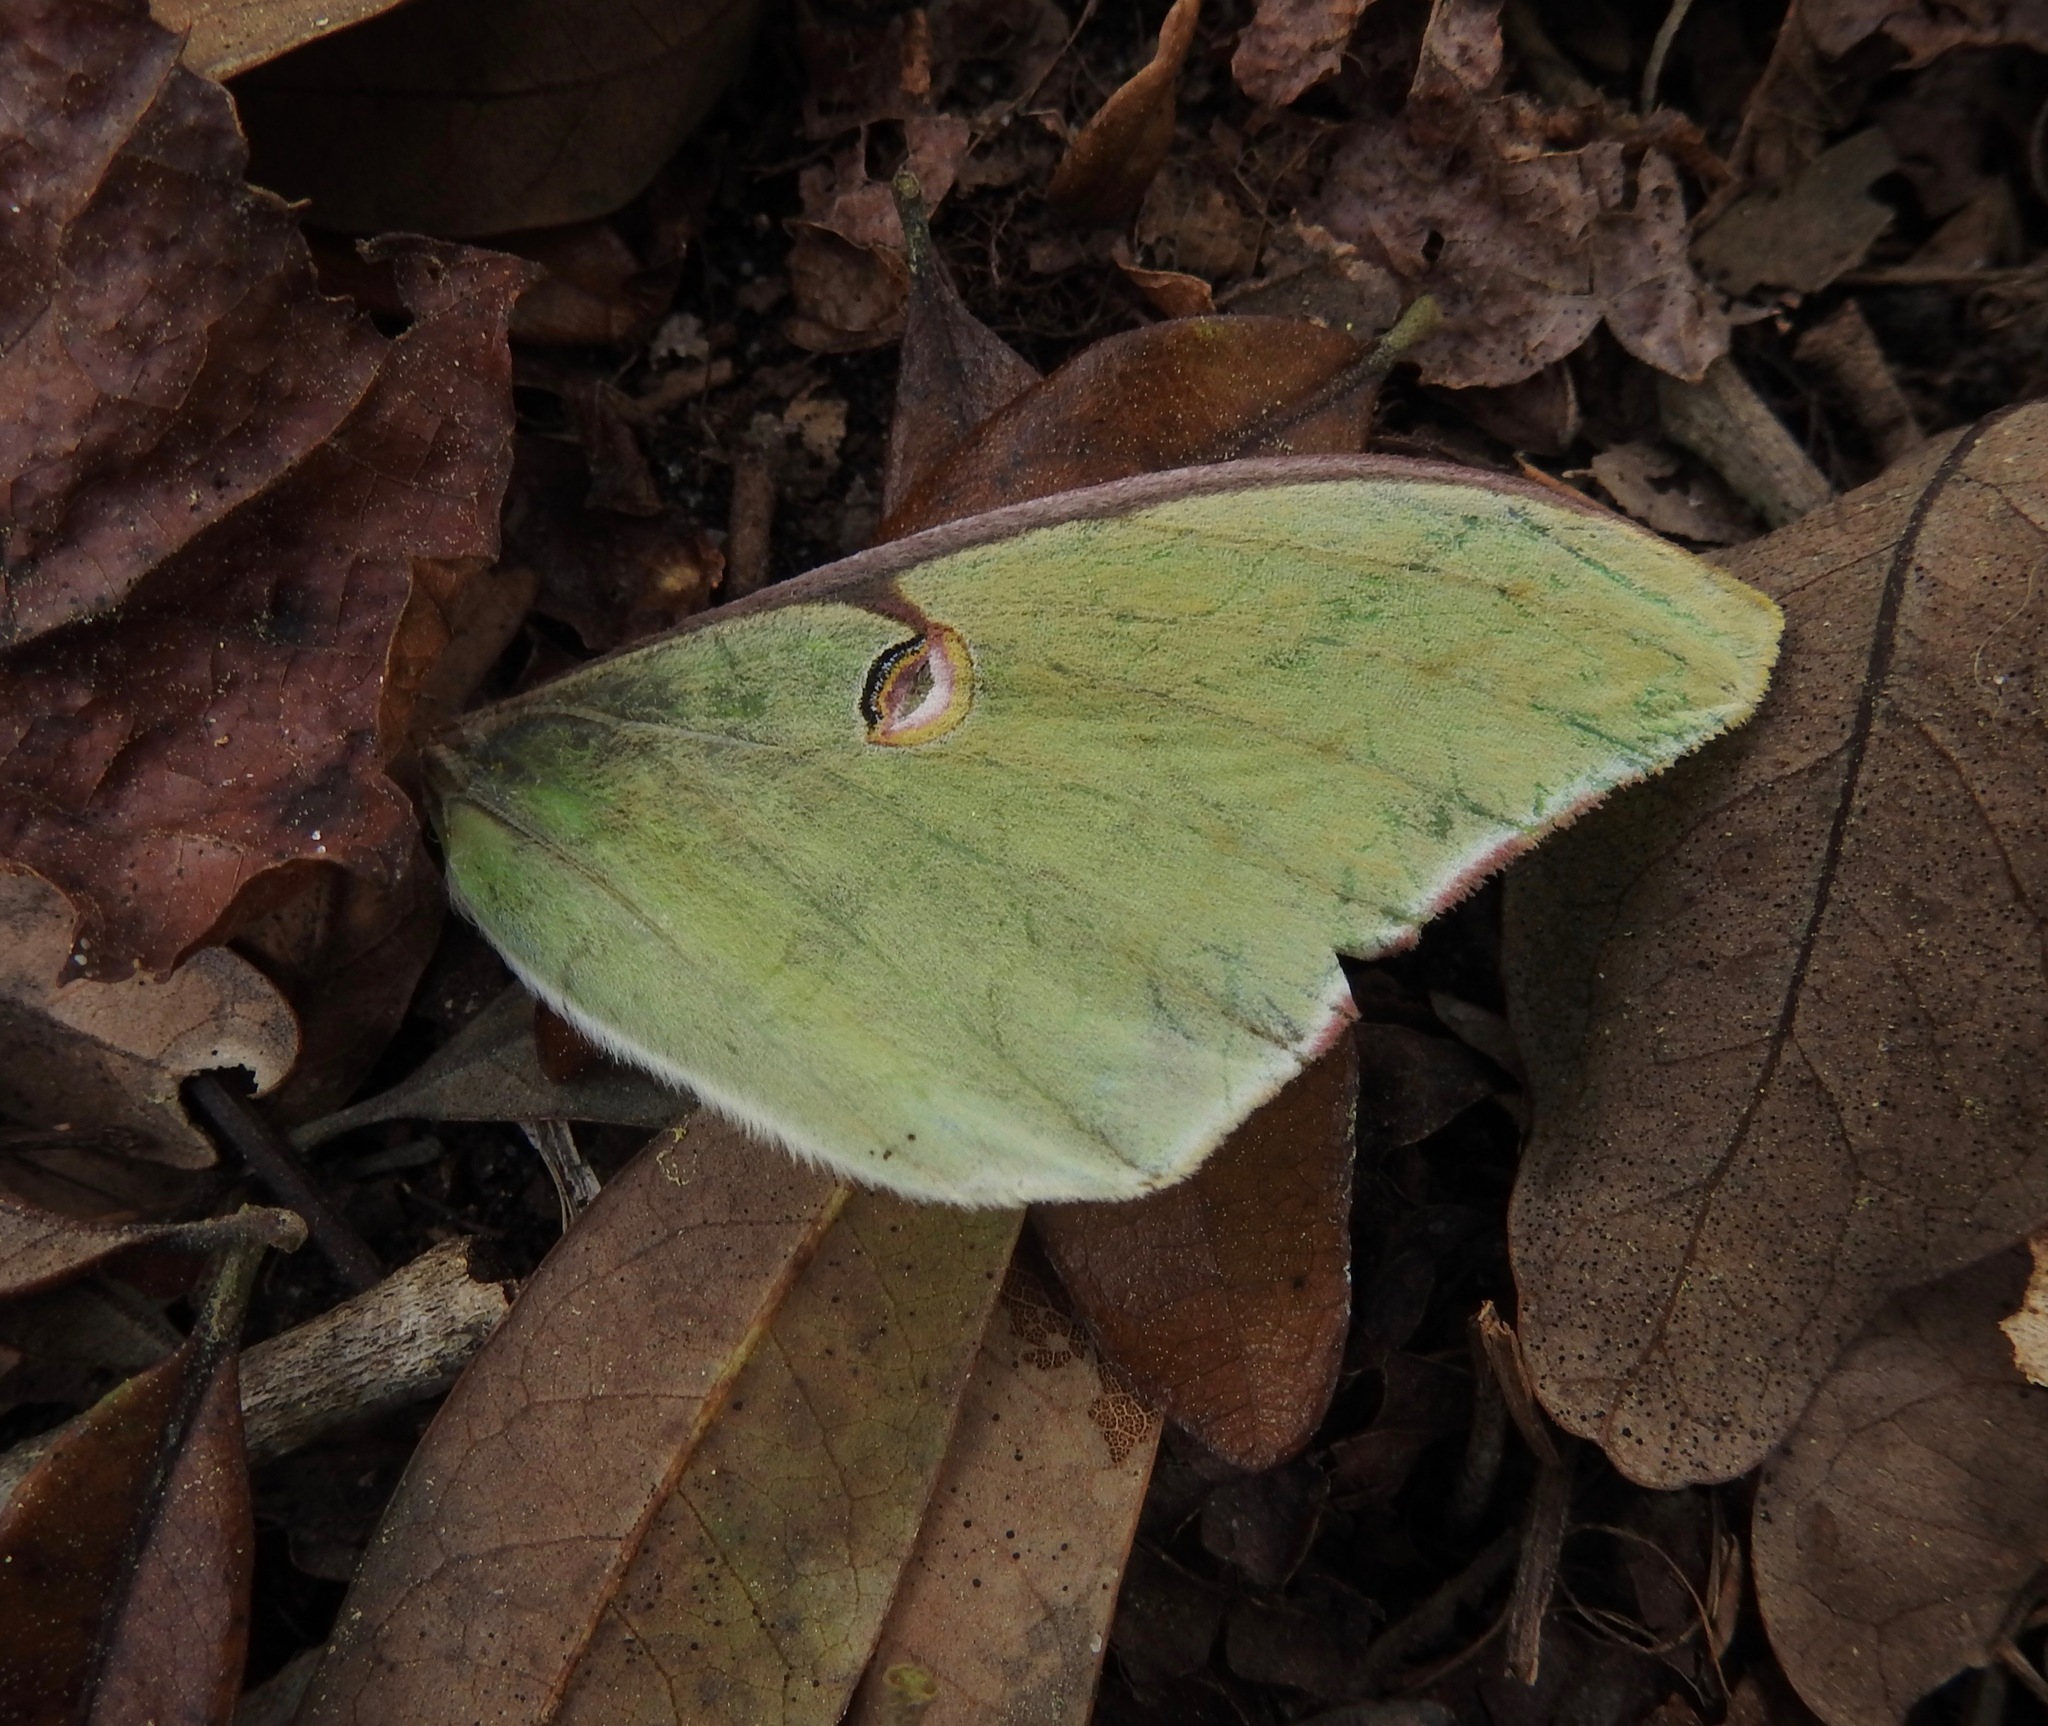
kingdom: Animalia
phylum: Arthropoda
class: Insecta
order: Lepidoptera
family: Saturniidae
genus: Actias
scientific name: Actias luna
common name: Luna moth
